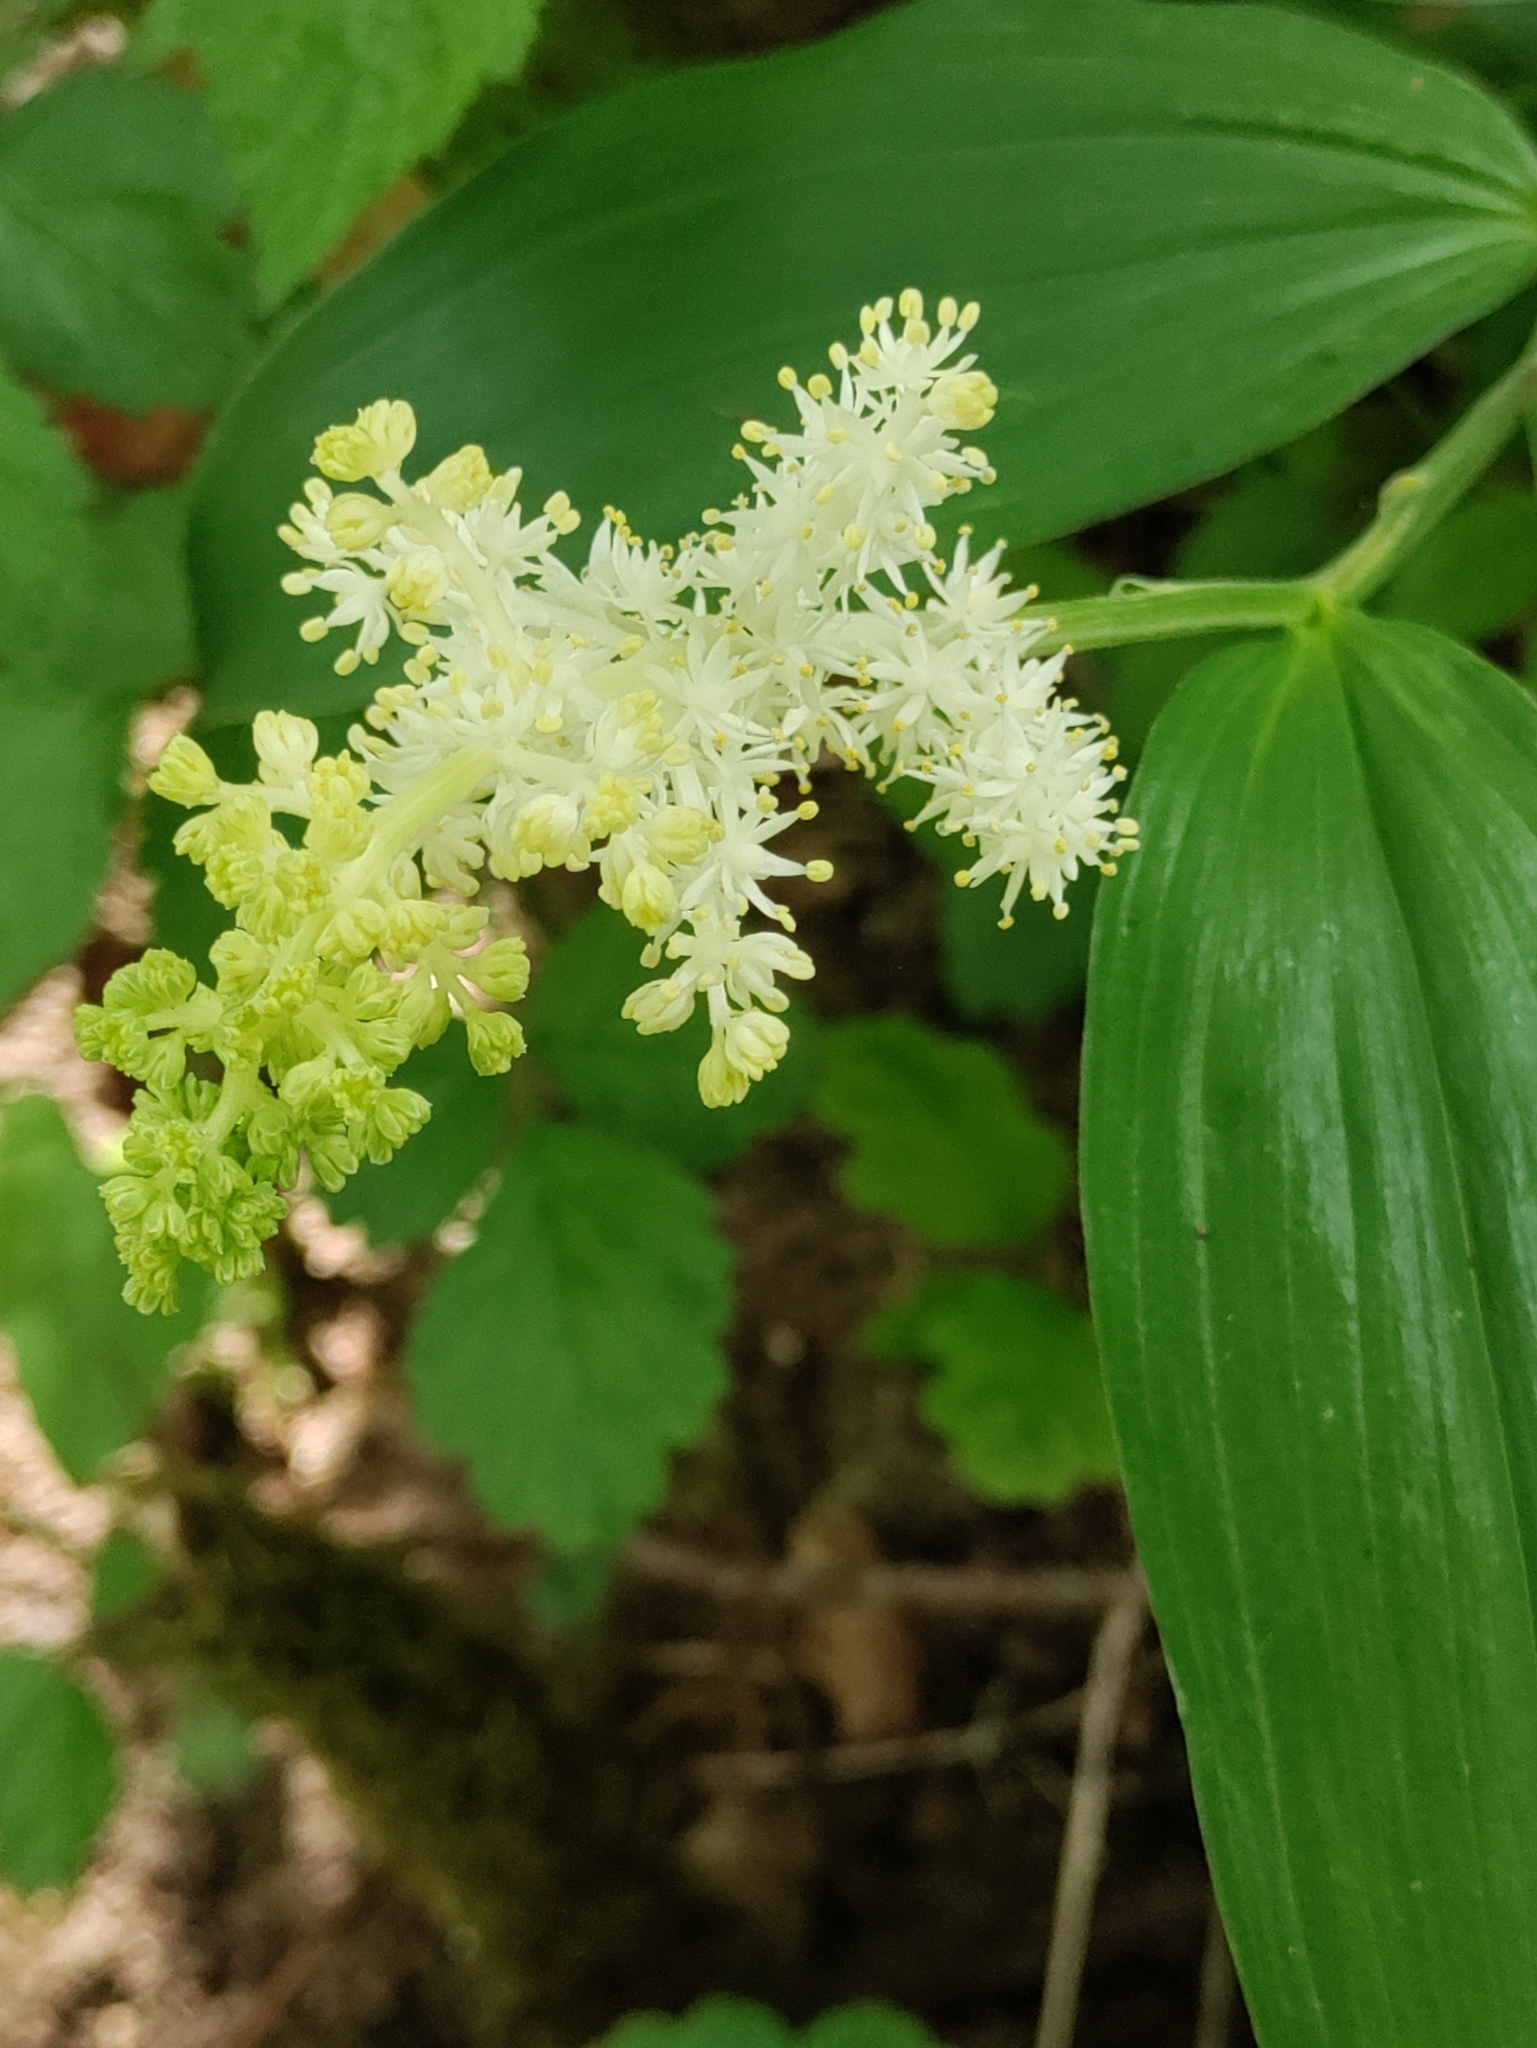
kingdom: Plantae
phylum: Tracheophyta
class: Liliopsida
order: Asparagales
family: Asparagaceae
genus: Maianthemum
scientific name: Maianthemum racemosum
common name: False spikenard
